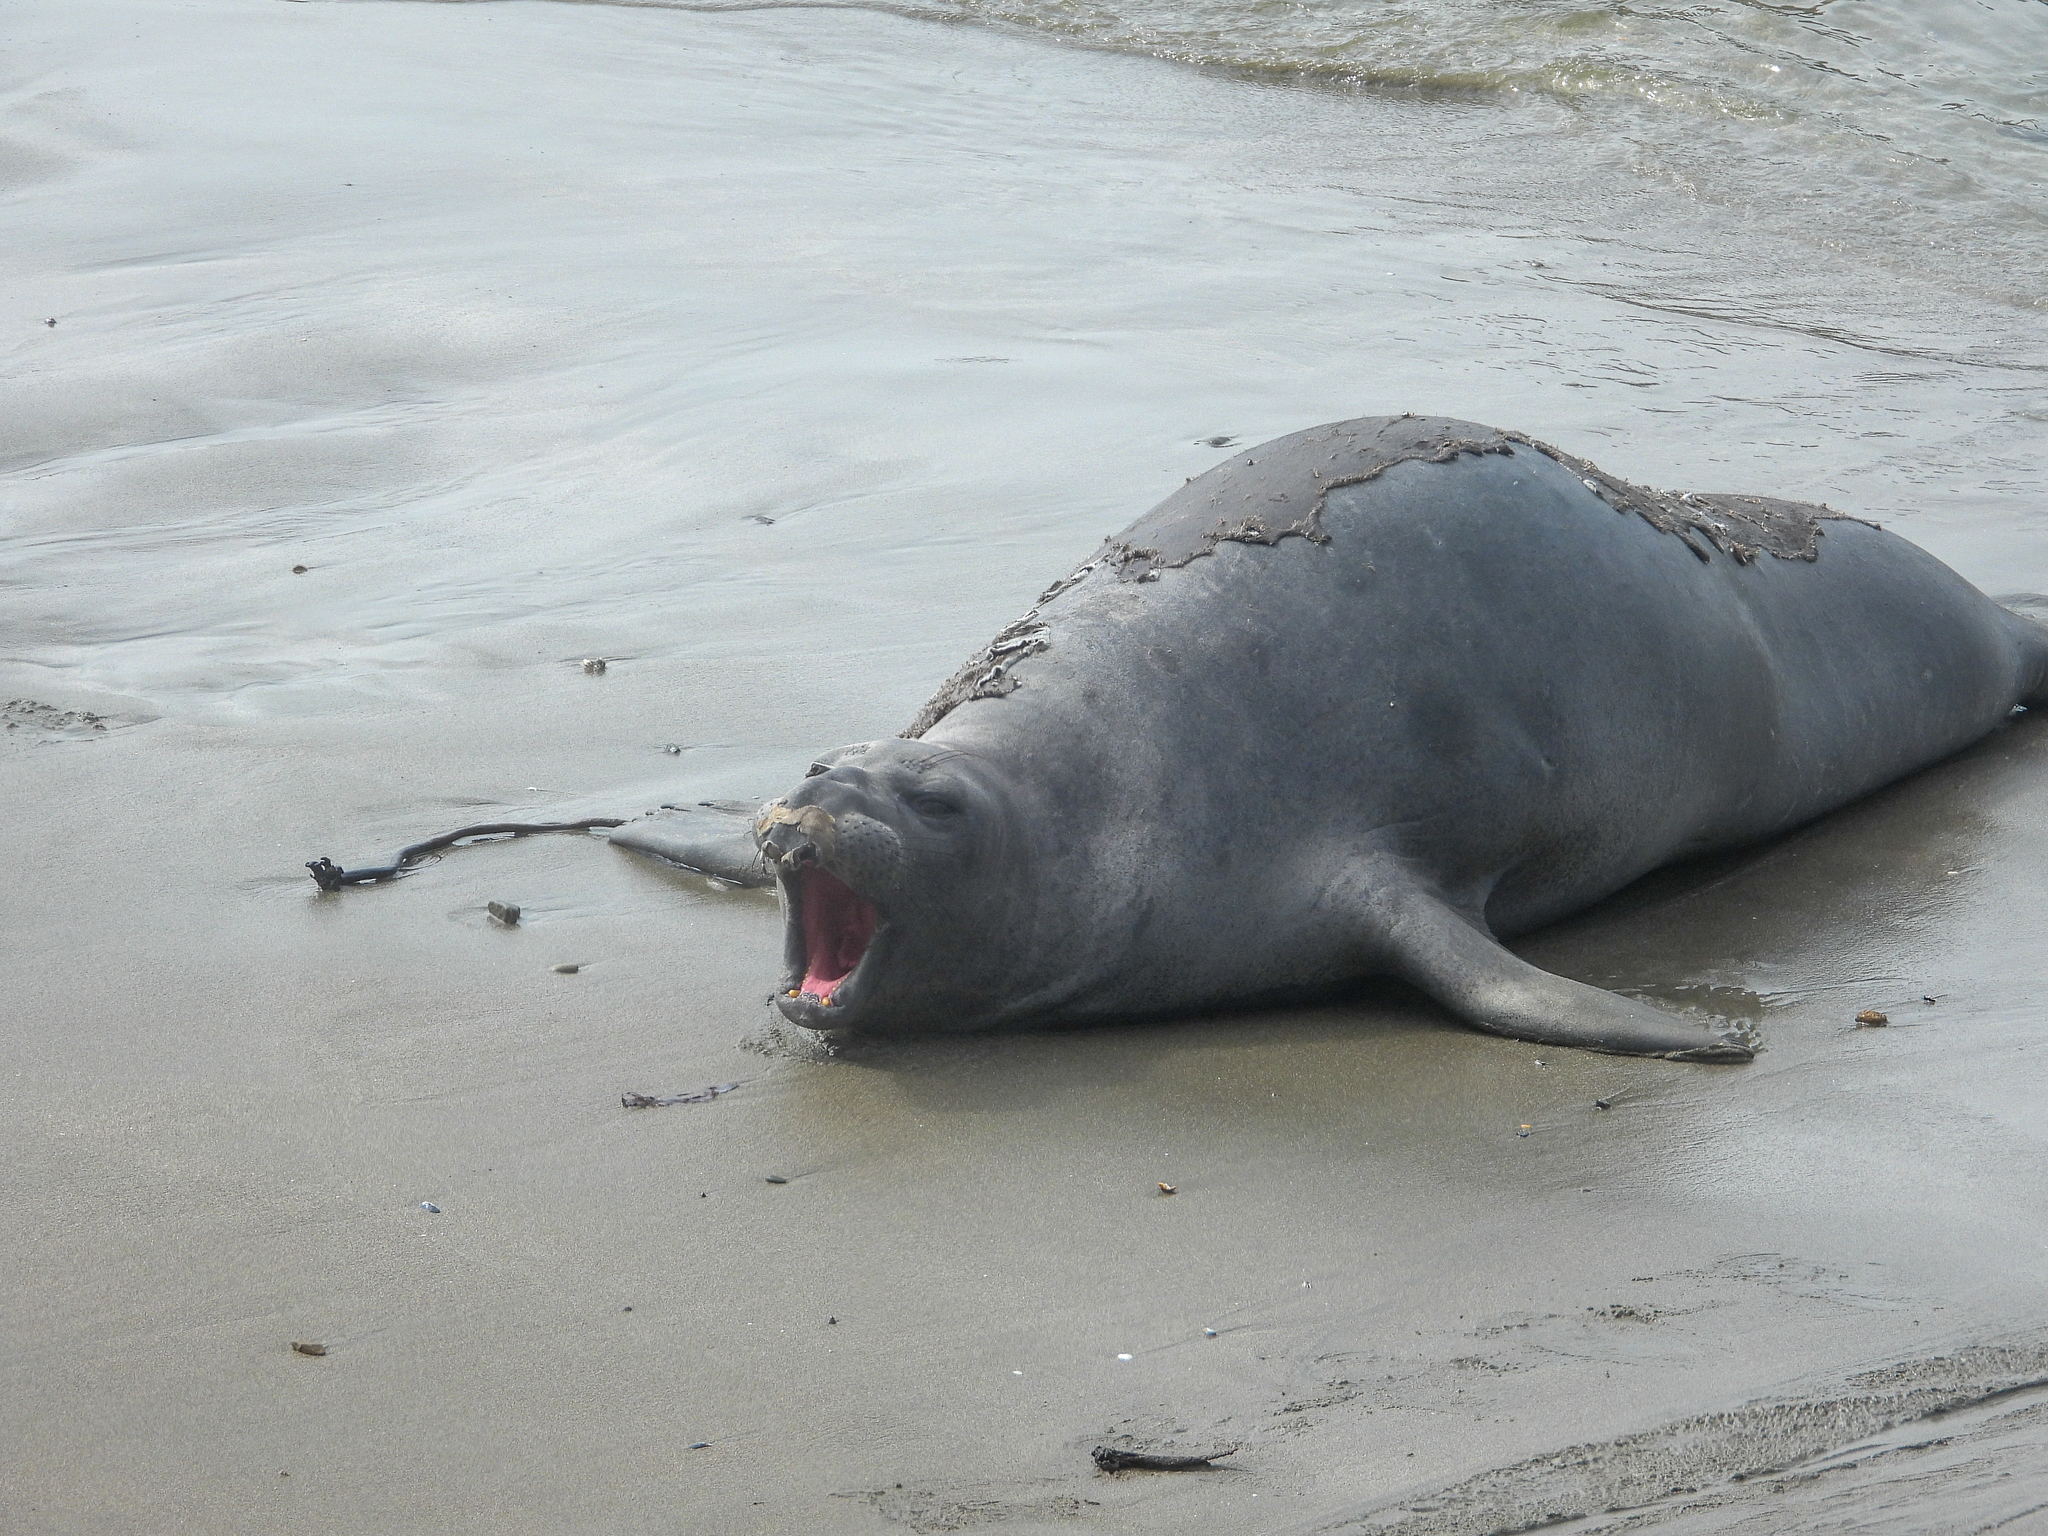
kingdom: Animalia
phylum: Chordata
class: Mammalia
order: Carnivora
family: Phocidae
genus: Mirounga
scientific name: Mirounga angustirostris
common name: Northern elephant seal
